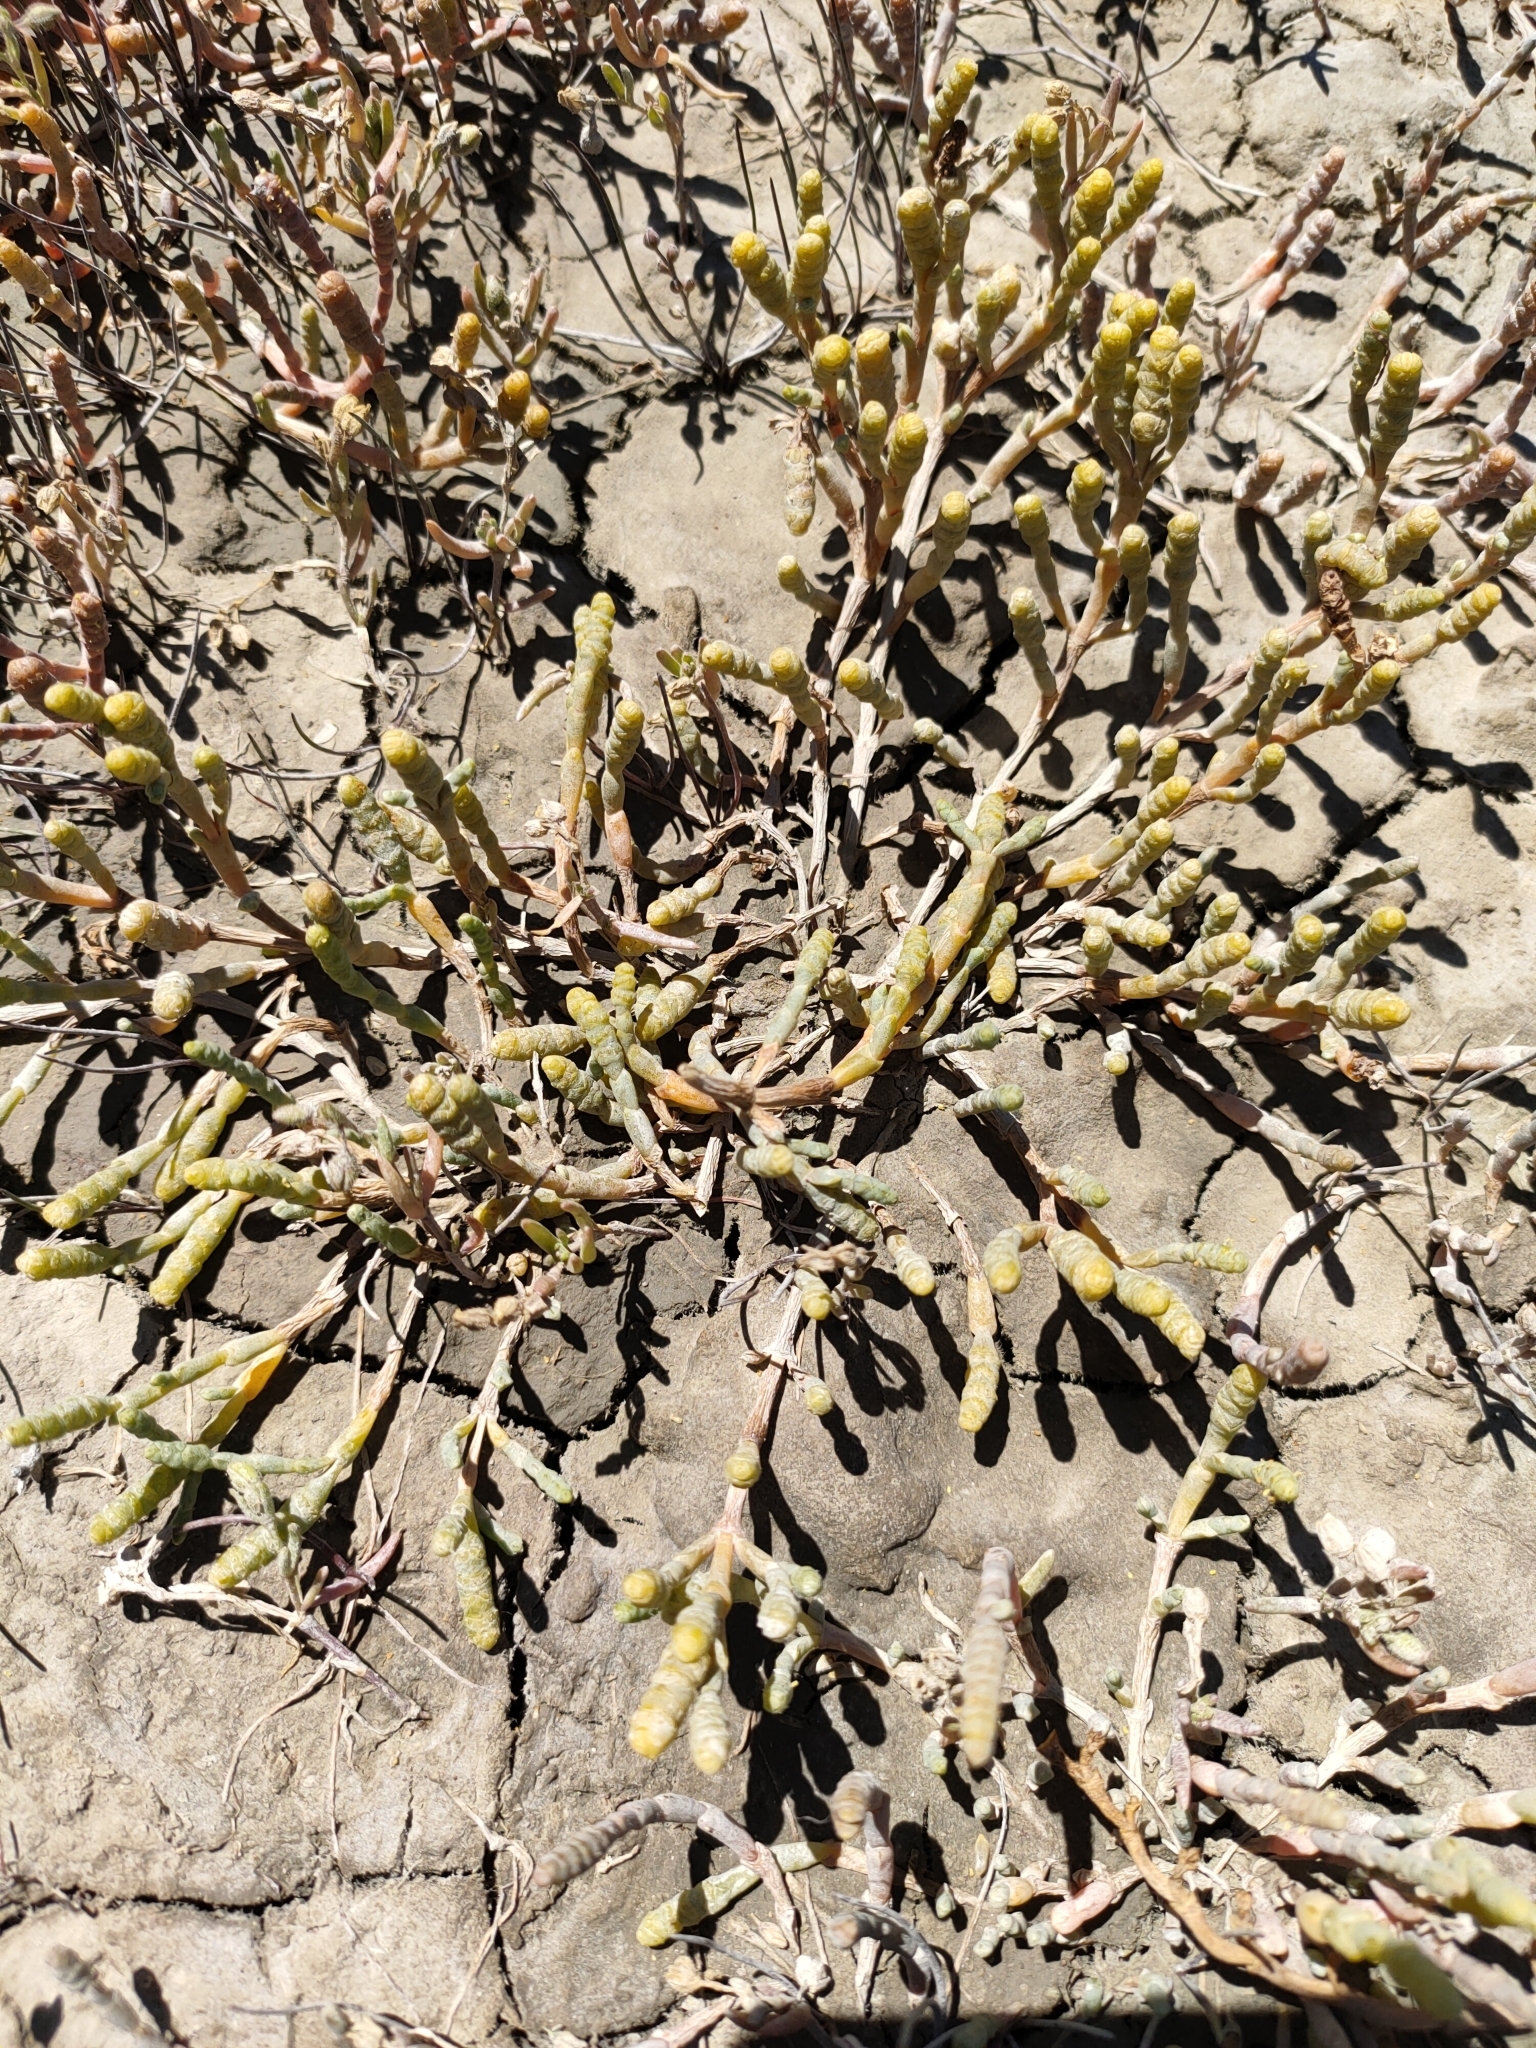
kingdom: Plantae
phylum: Tracheophyta
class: Magnoliopsida
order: Caryophyllales
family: Amaranthaceae
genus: Salicornia
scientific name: Salicornia quinqueflora
